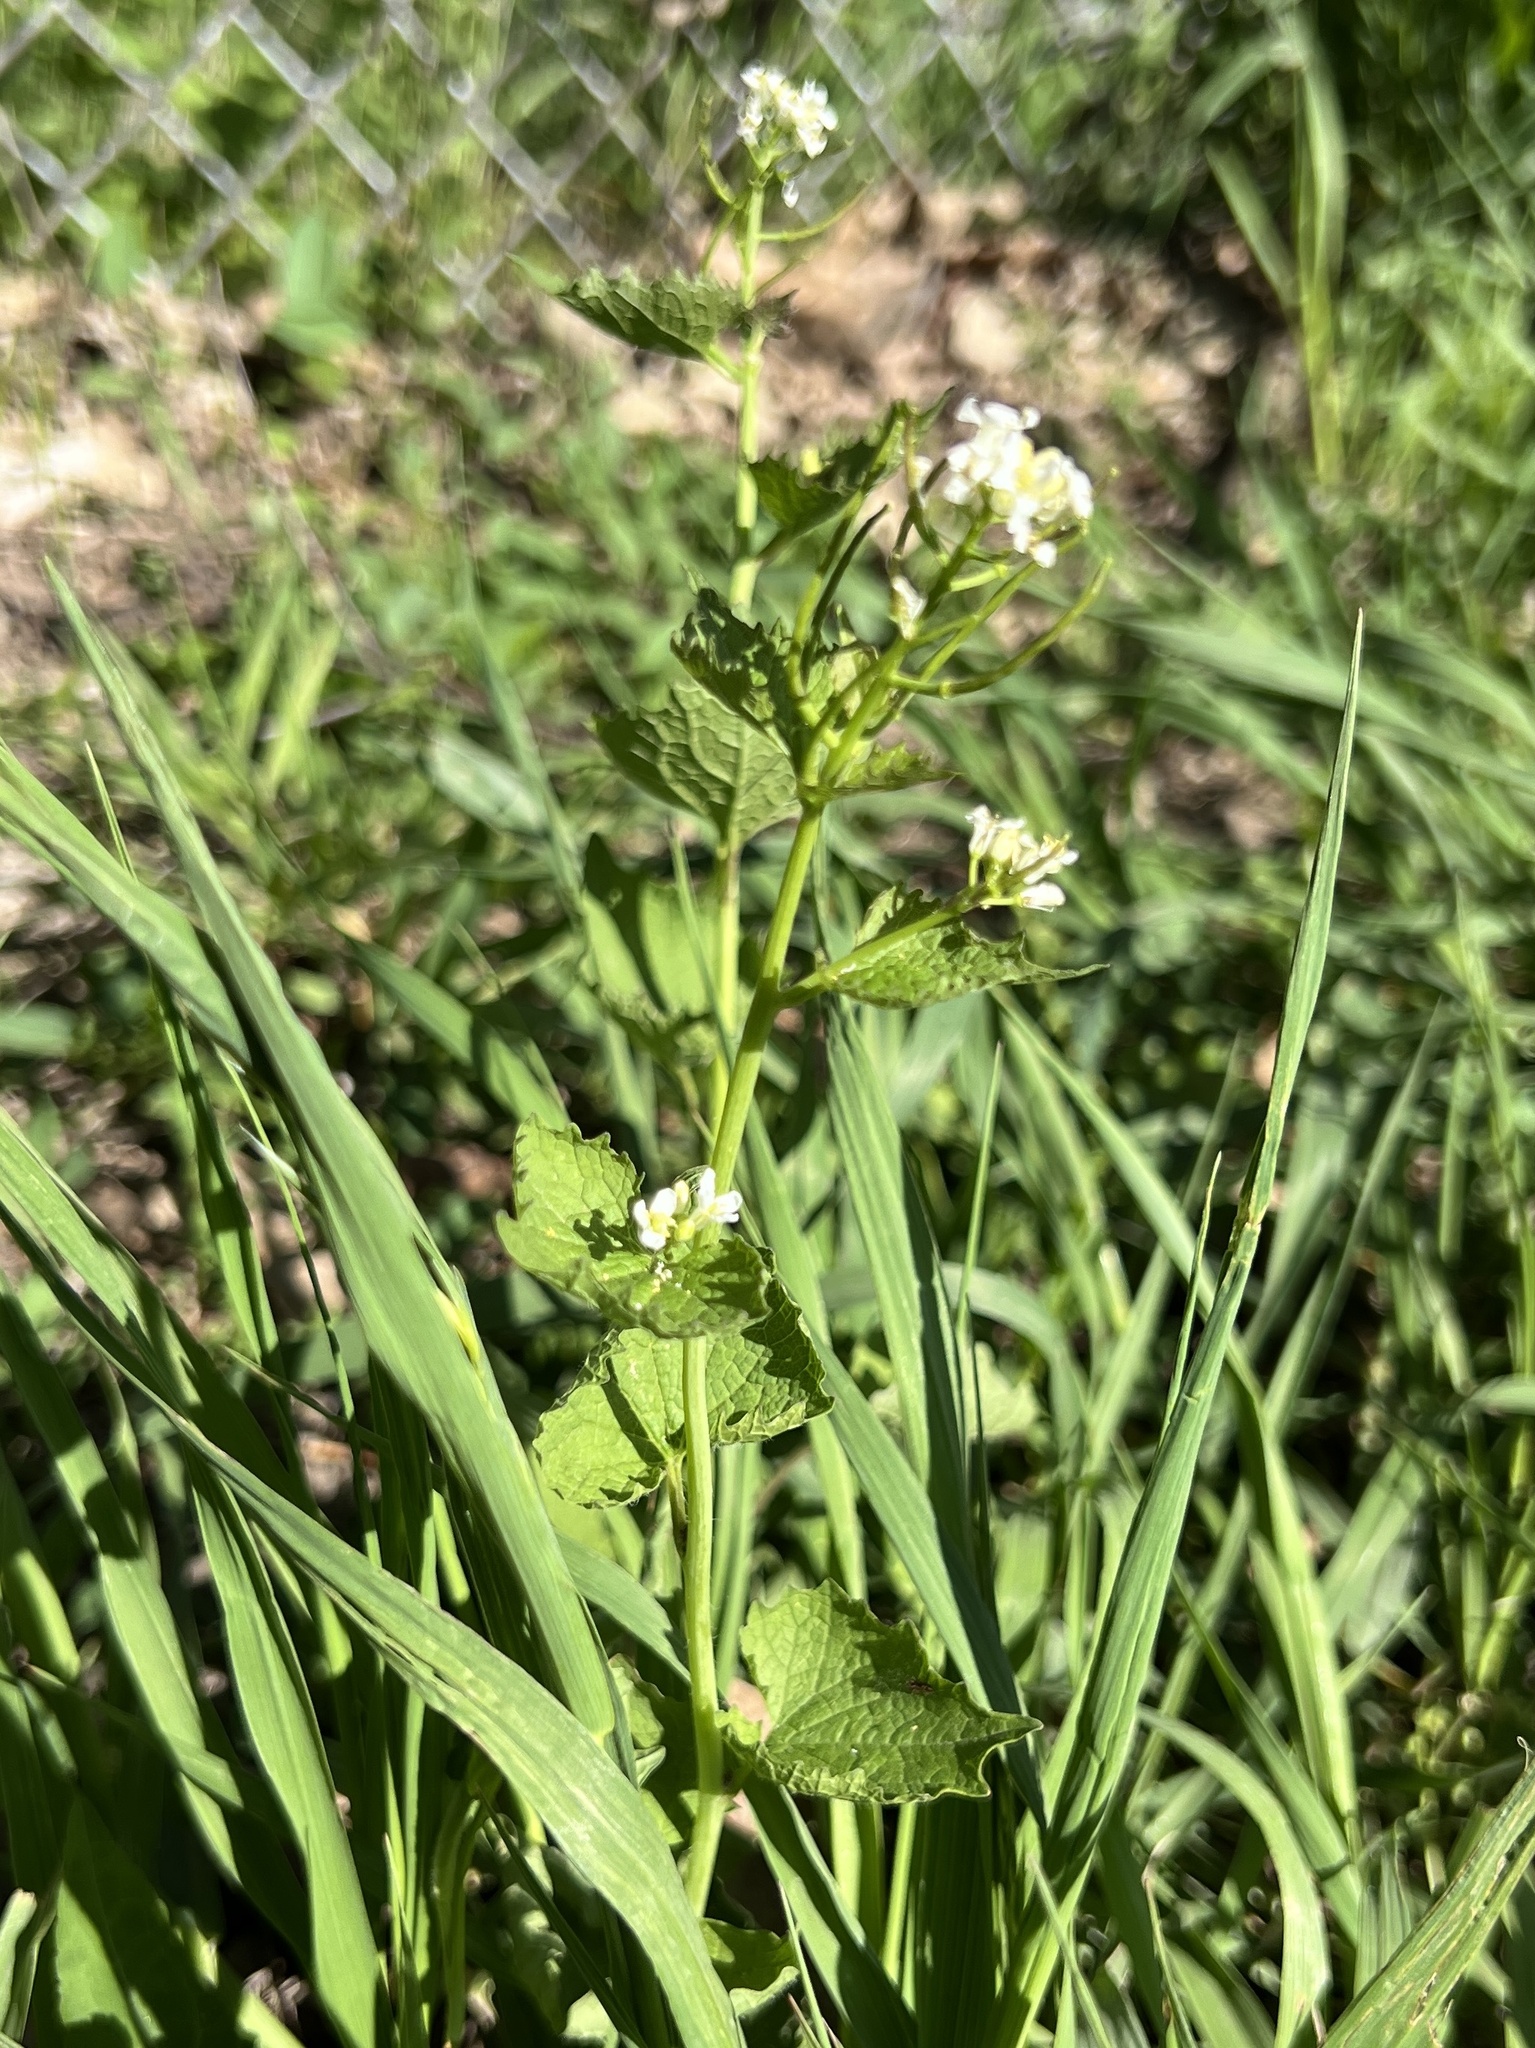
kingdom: Plantae
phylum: Tracheophyta
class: Magnoliopsida
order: Brassicales
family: Brassicaceae
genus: Alliaria
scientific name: Alliaria petiolata
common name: Garlic mustard
